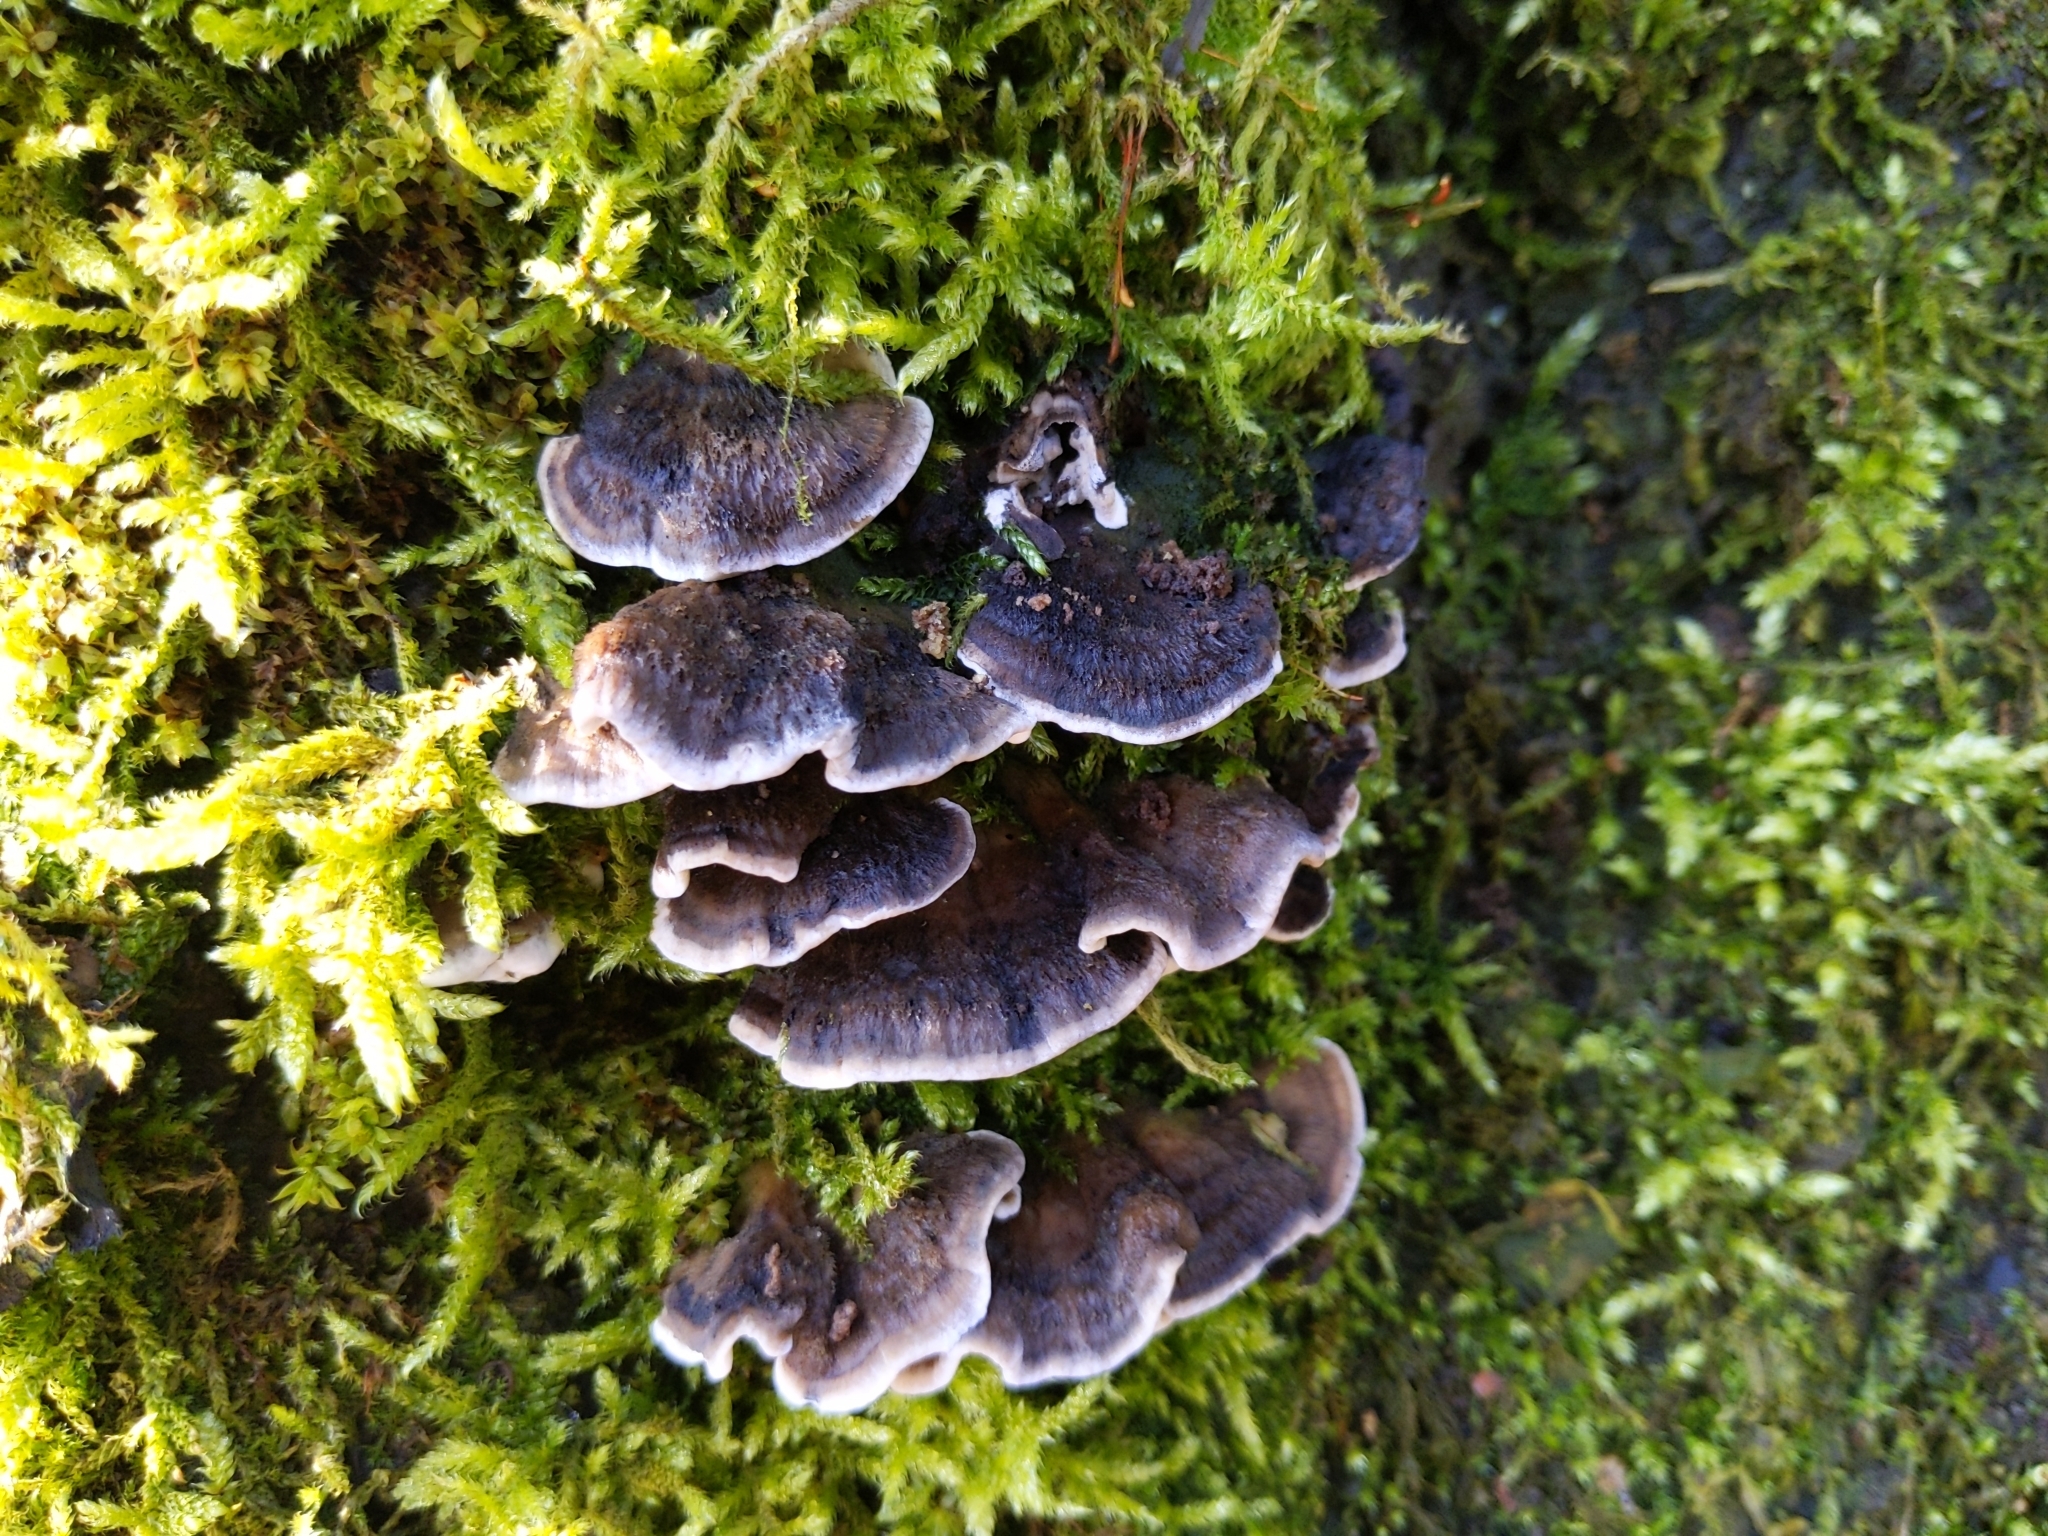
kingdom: Fungi
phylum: Basidiomycota
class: Agaricomycetes
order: Polyporales
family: Phanerochaetaceae
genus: Bjerkandera
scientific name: Bjerkandera adusta
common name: Smoky bracket
